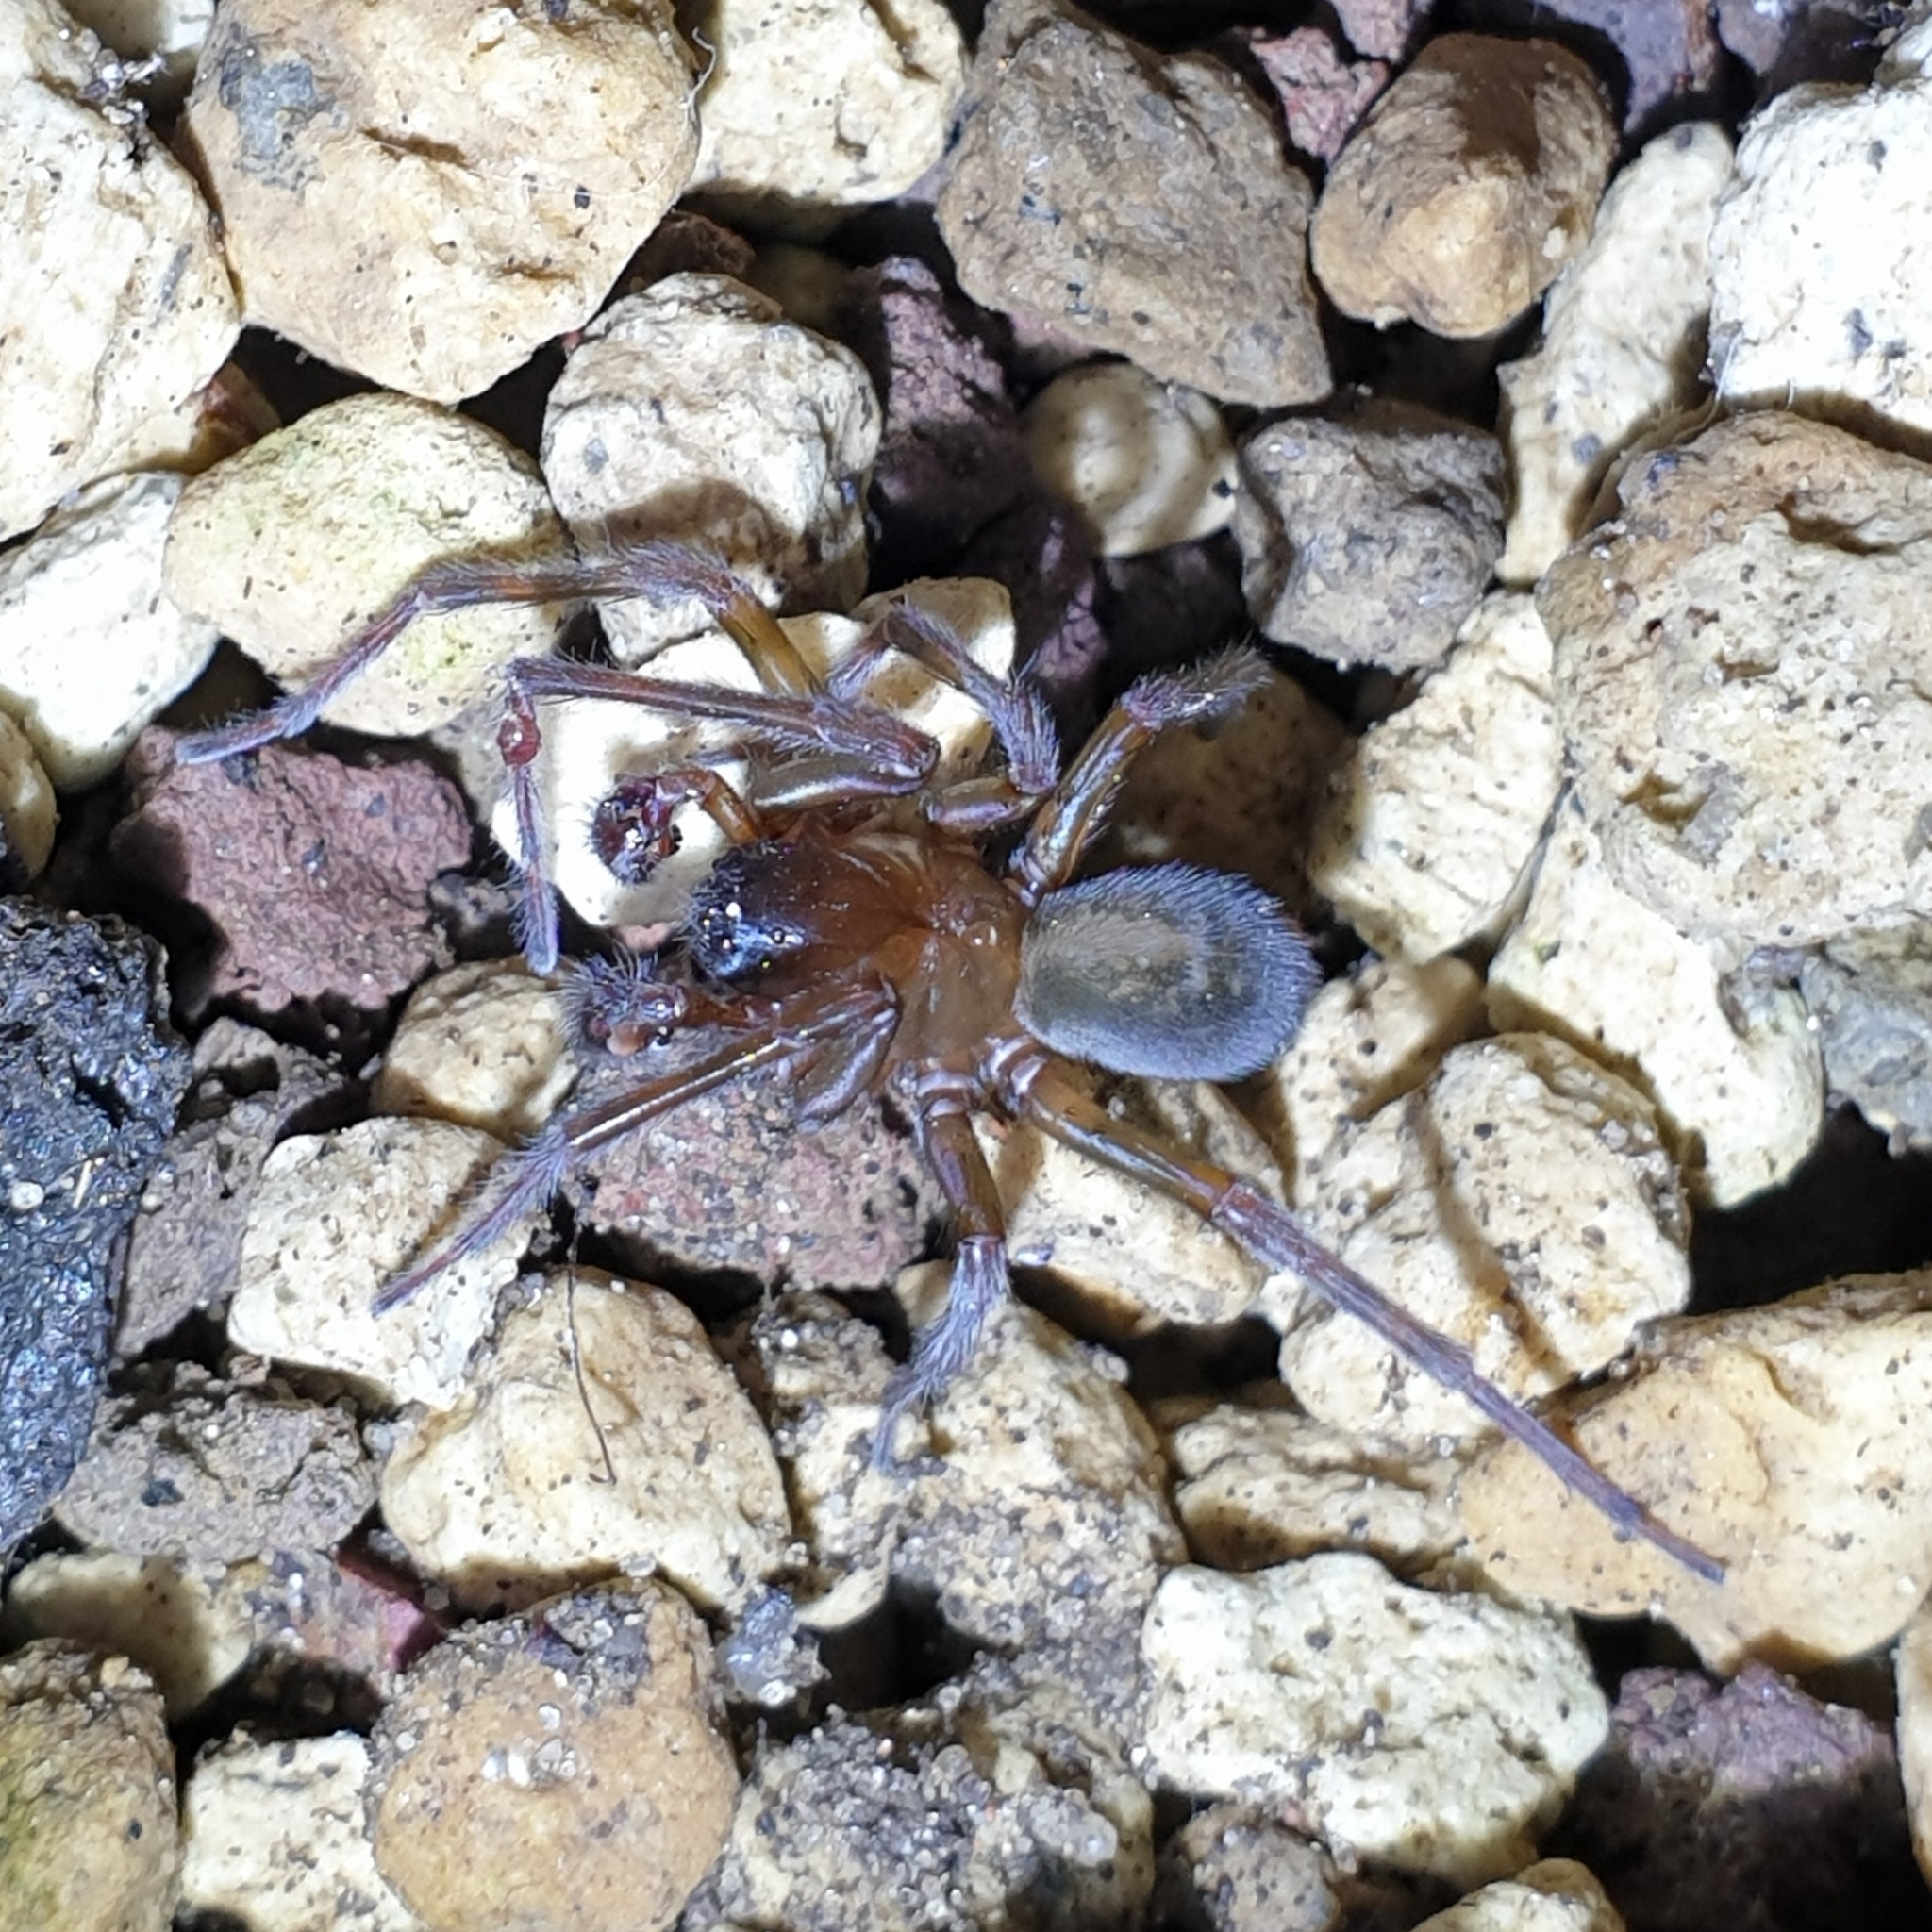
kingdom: Animalia
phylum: Arthropoda
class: Arachnida
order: Araneae
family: Amaurobiidae
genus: Amaurobius
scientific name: Amaurobius ferox
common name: Black laceweaver
